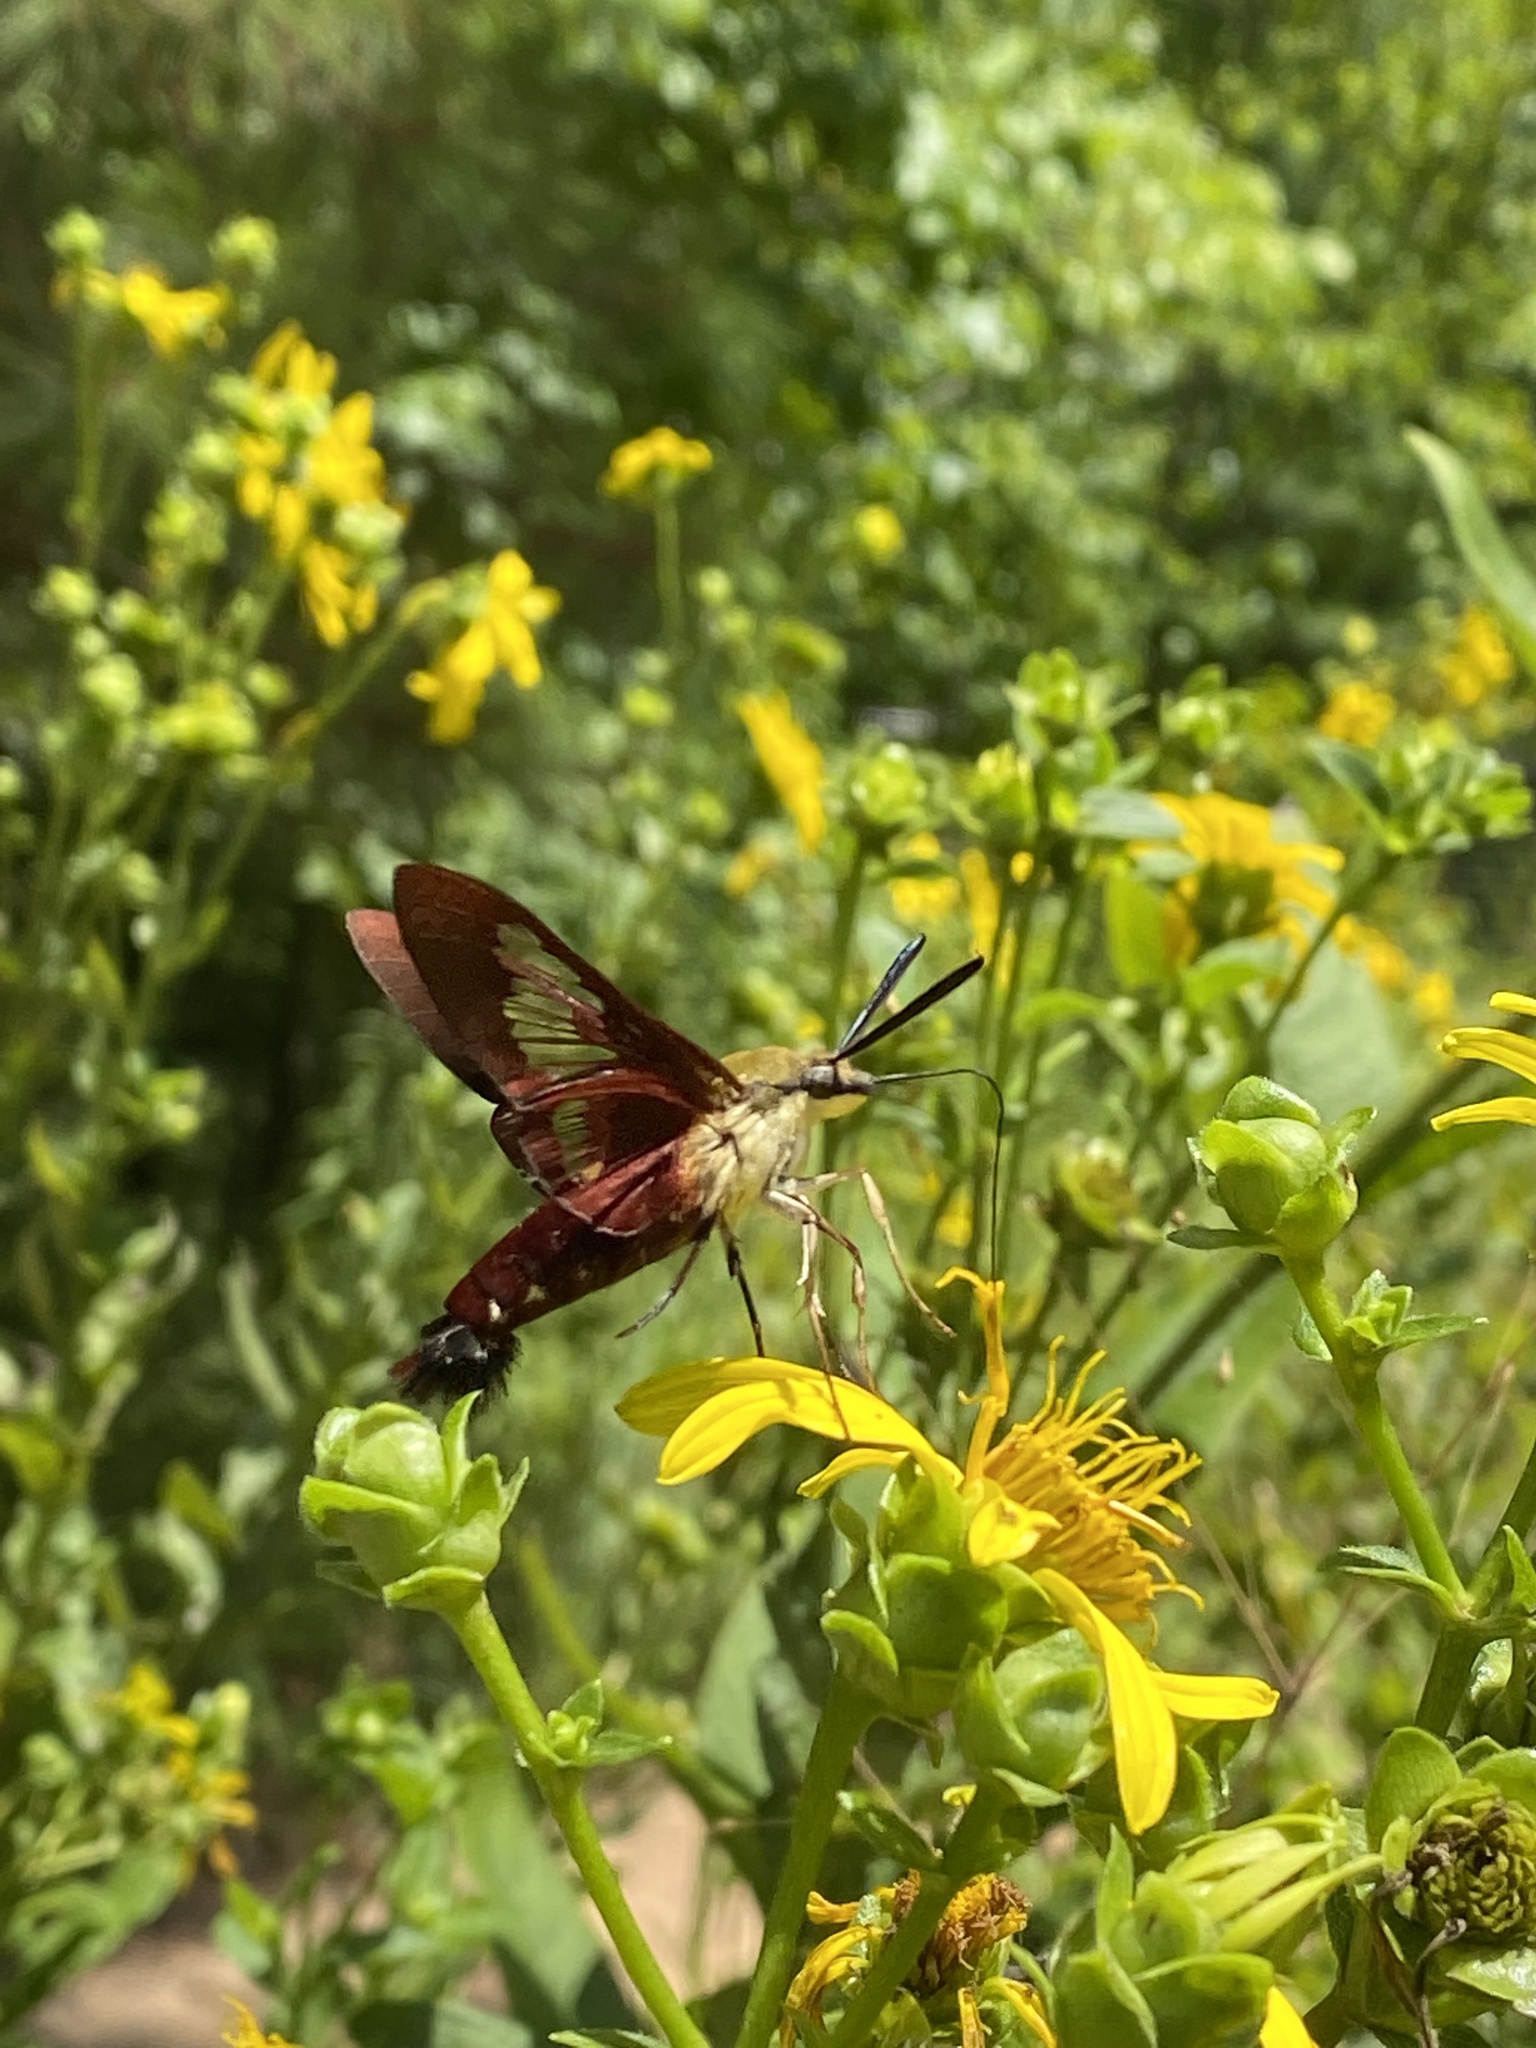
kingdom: Animalia
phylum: Arthropoda
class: Insecta
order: Lepidoptera
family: Sphingidae
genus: Hemaris
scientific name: Hemaris thysbe
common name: Common clear-wing
